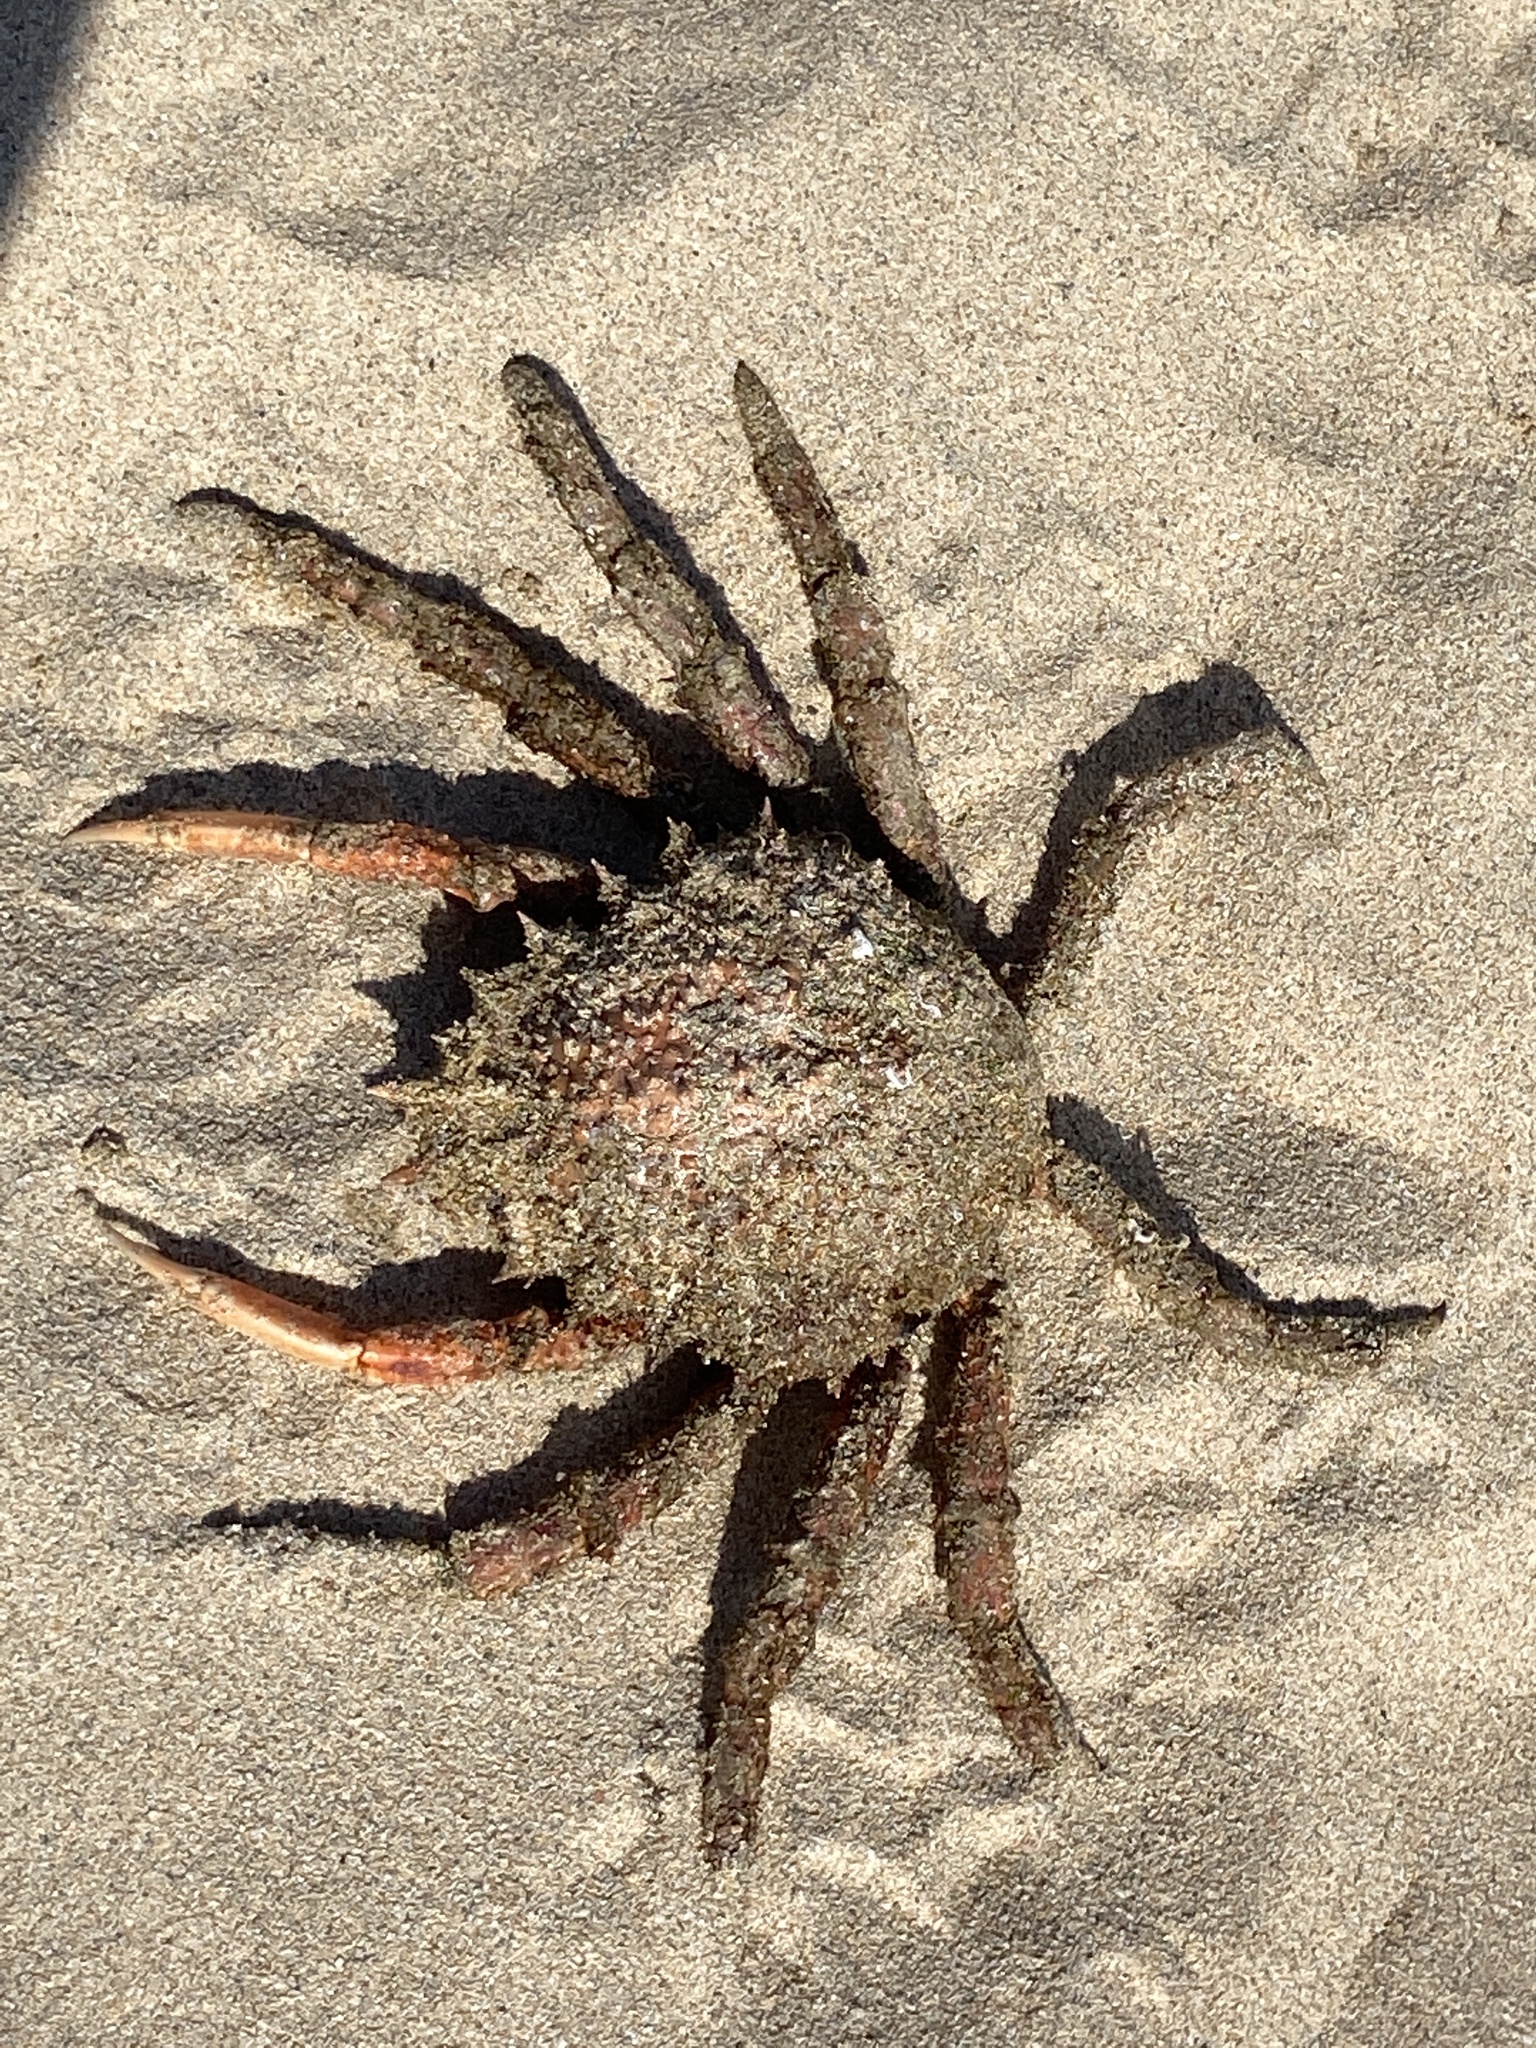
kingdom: Animalia
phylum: Arthropoda
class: Malacostraca
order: Decapoda
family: Majidae
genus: Maja
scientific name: Maja brachydactyla
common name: Common spider crab
